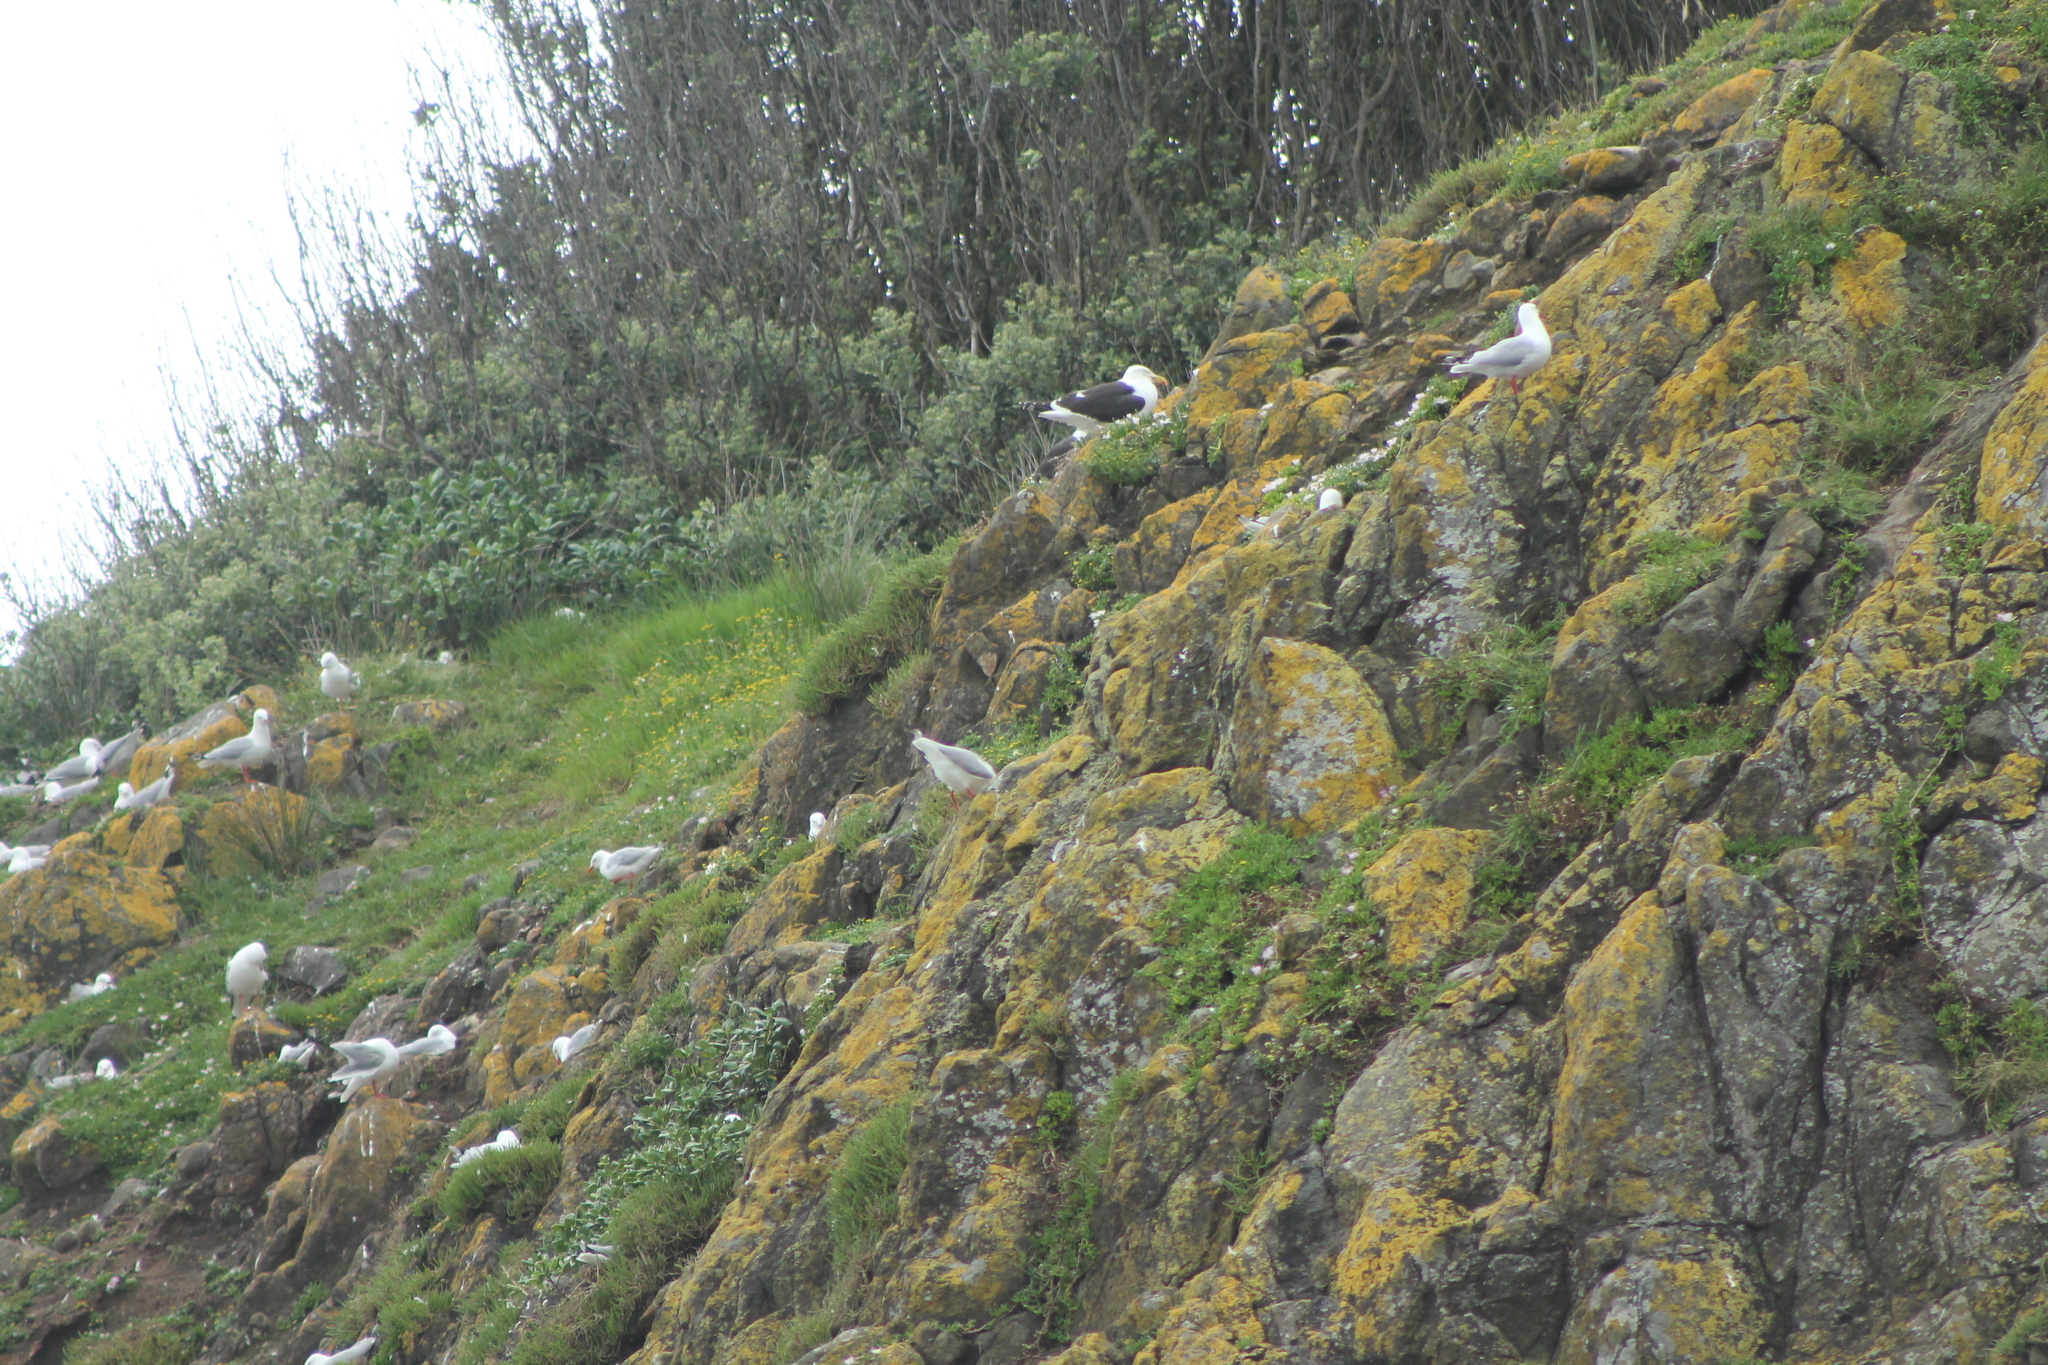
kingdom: Animalia
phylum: Chordata
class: Aves
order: Charadriiformes
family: Laridae
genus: Larus
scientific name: Larus dominicanus
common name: Kelp gull
